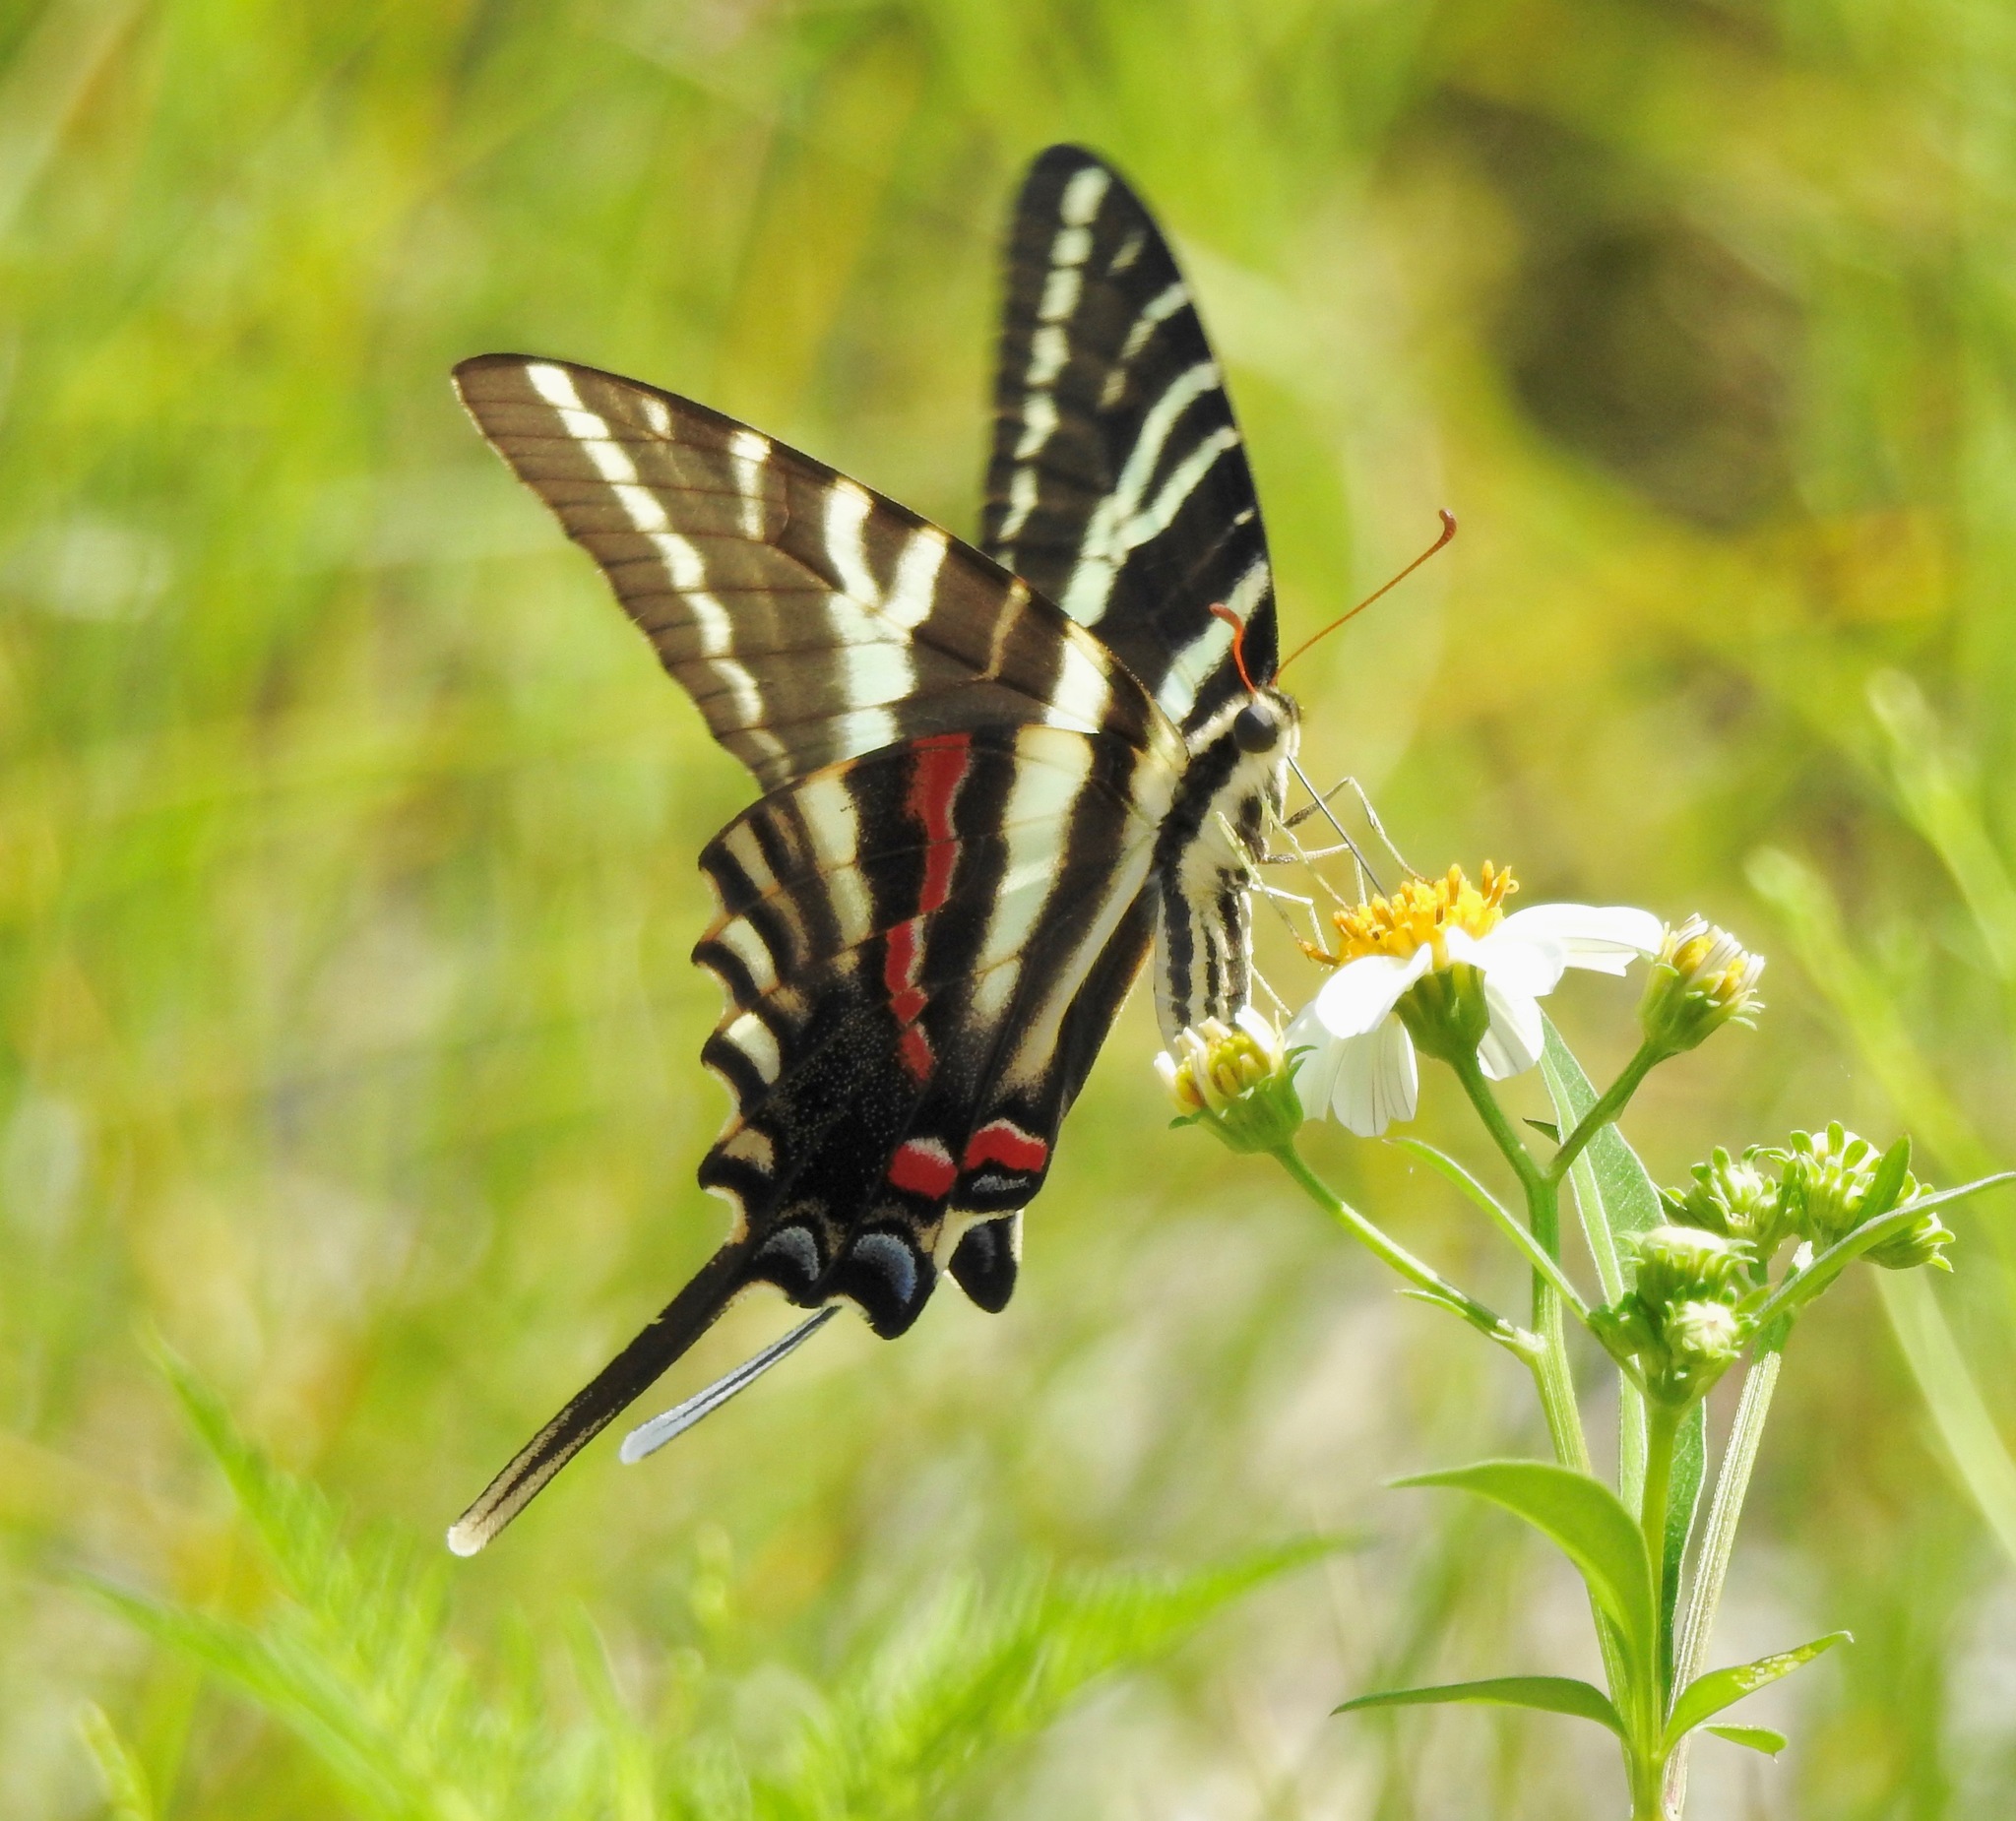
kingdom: Animalia
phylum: Arthropoda
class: Insecta
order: Lepidoptera
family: Papilionidae
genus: Protographium
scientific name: Protographium marcellus
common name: Zebra swallowtail
